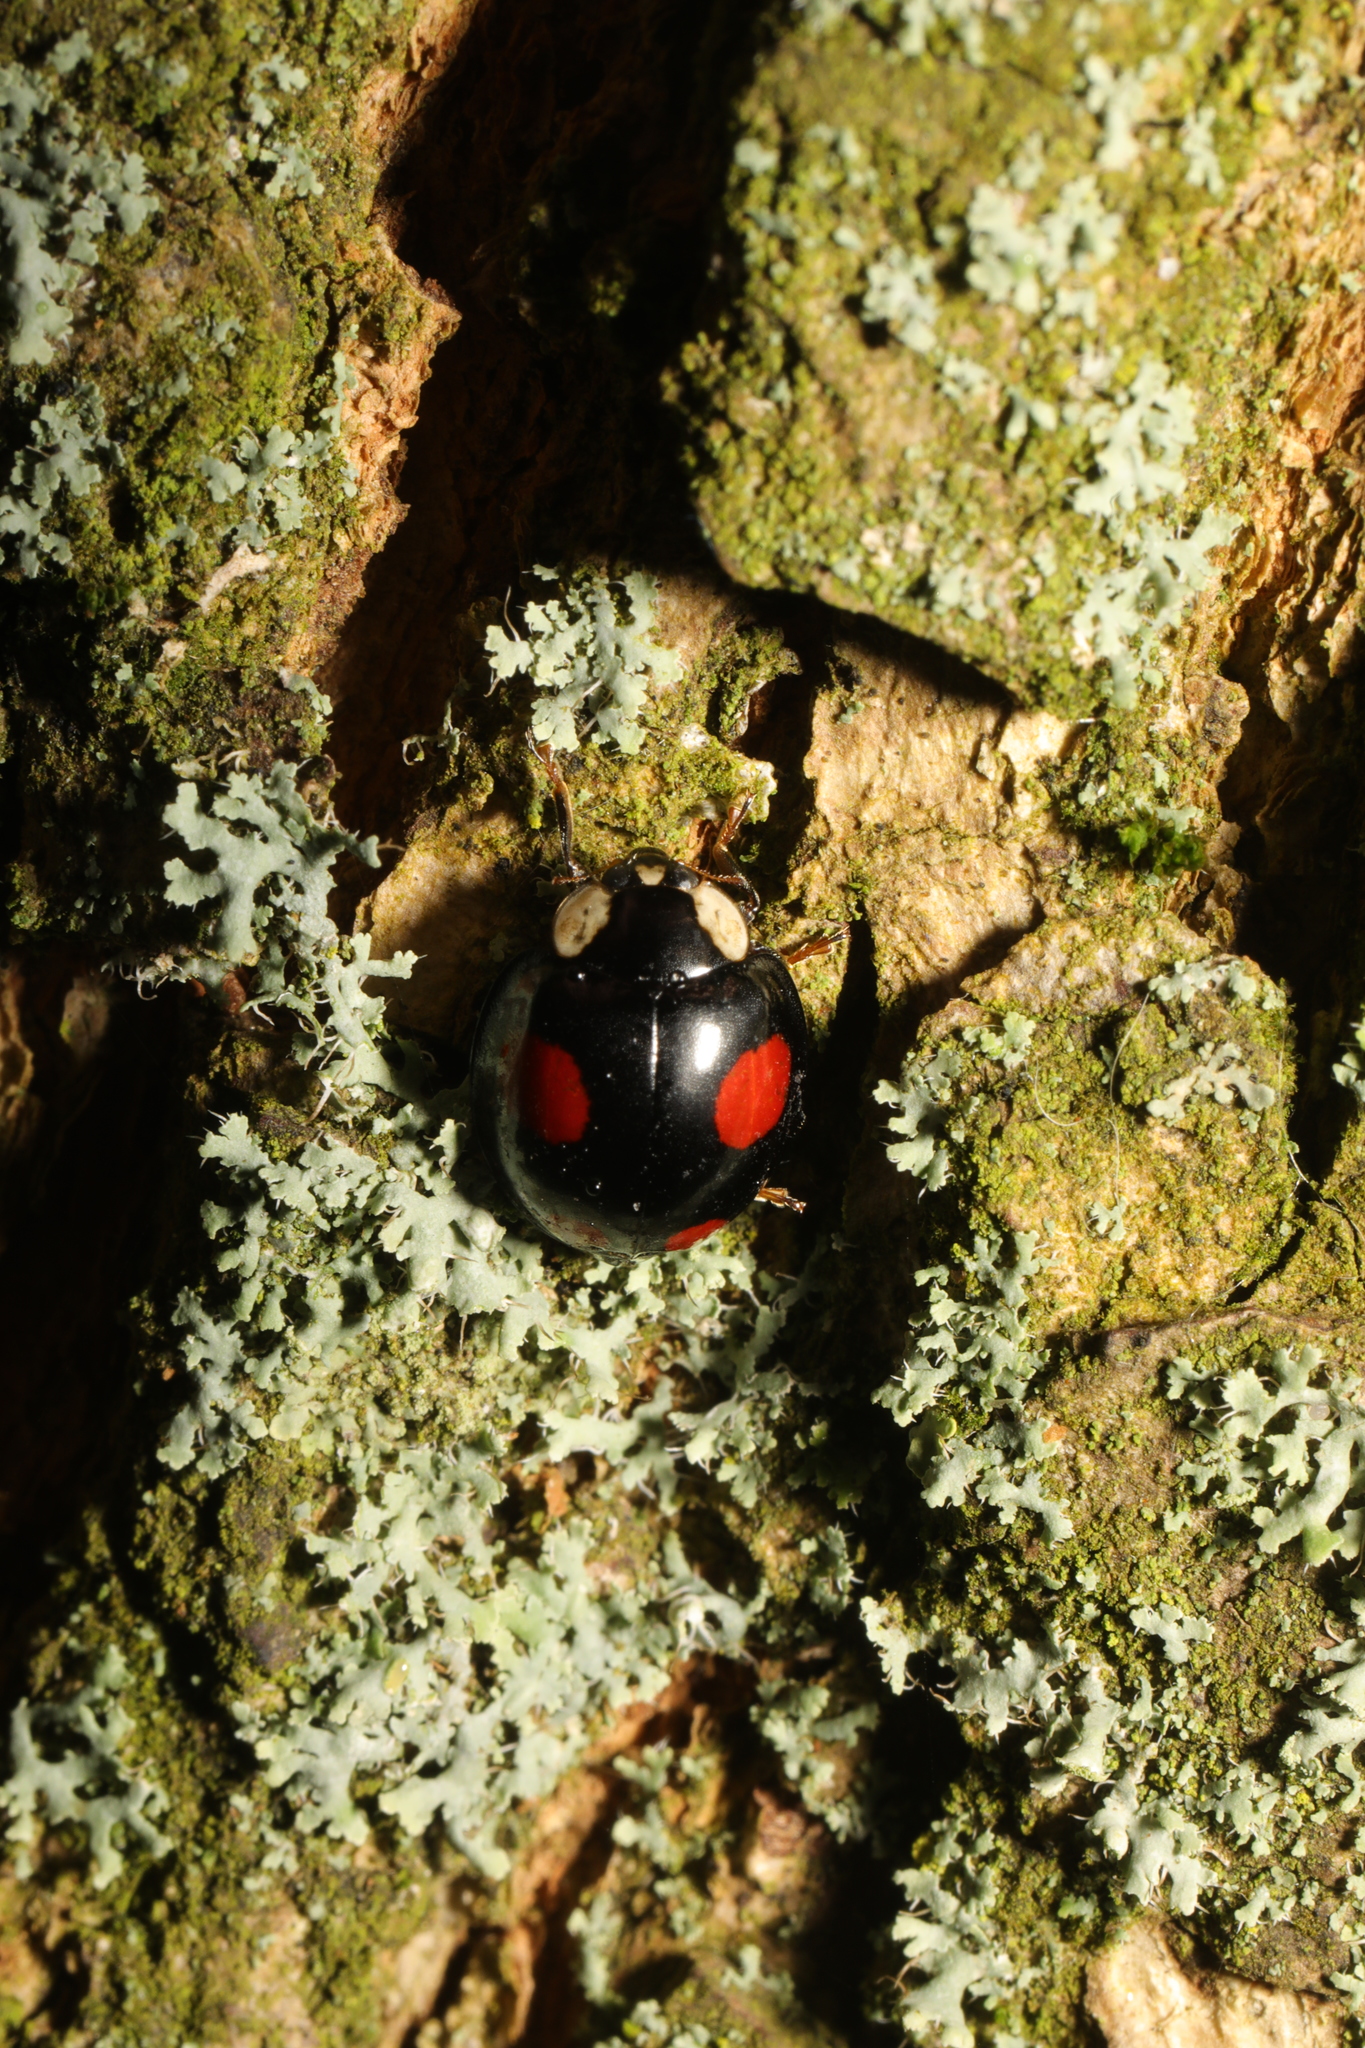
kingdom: Animalia
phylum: Arthropoda
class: Insecta
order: Coleoptera
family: Coccinellidae
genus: Harmonia
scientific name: Harmonia axyridis
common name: Harlequin ladybird
